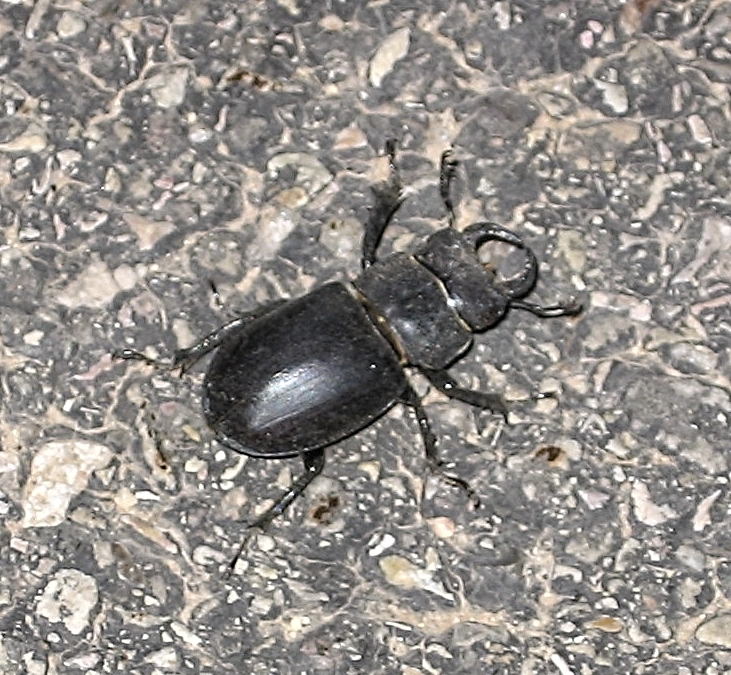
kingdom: Animalia
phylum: Arthropoda
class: Insecta
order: Coleoptera
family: Lucanidae
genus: Lucanus
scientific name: Lucanus mazama
